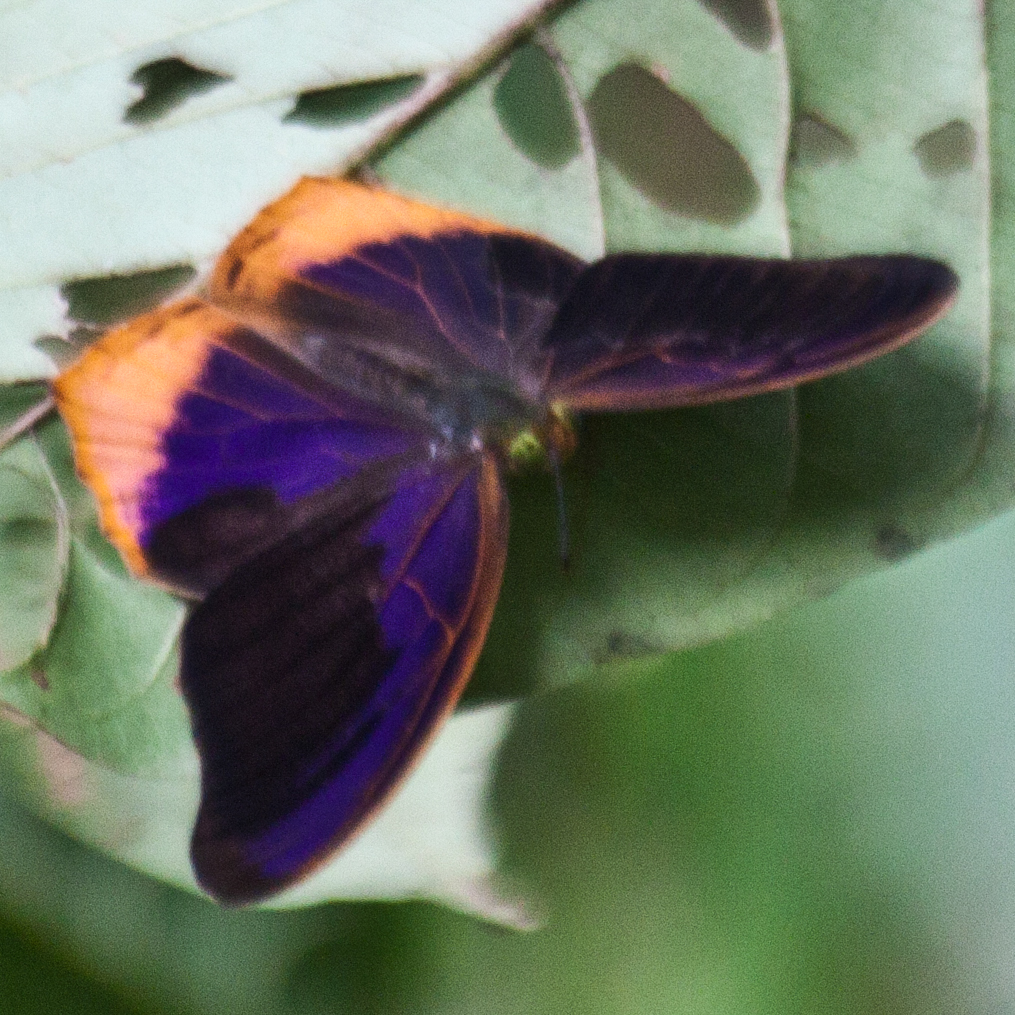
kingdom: Animalia
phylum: Arthropoda
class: Insecta
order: Lepidoptera
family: Nymphalidae
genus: Terinos
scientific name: Terinos terpander
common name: Royal assyrian
